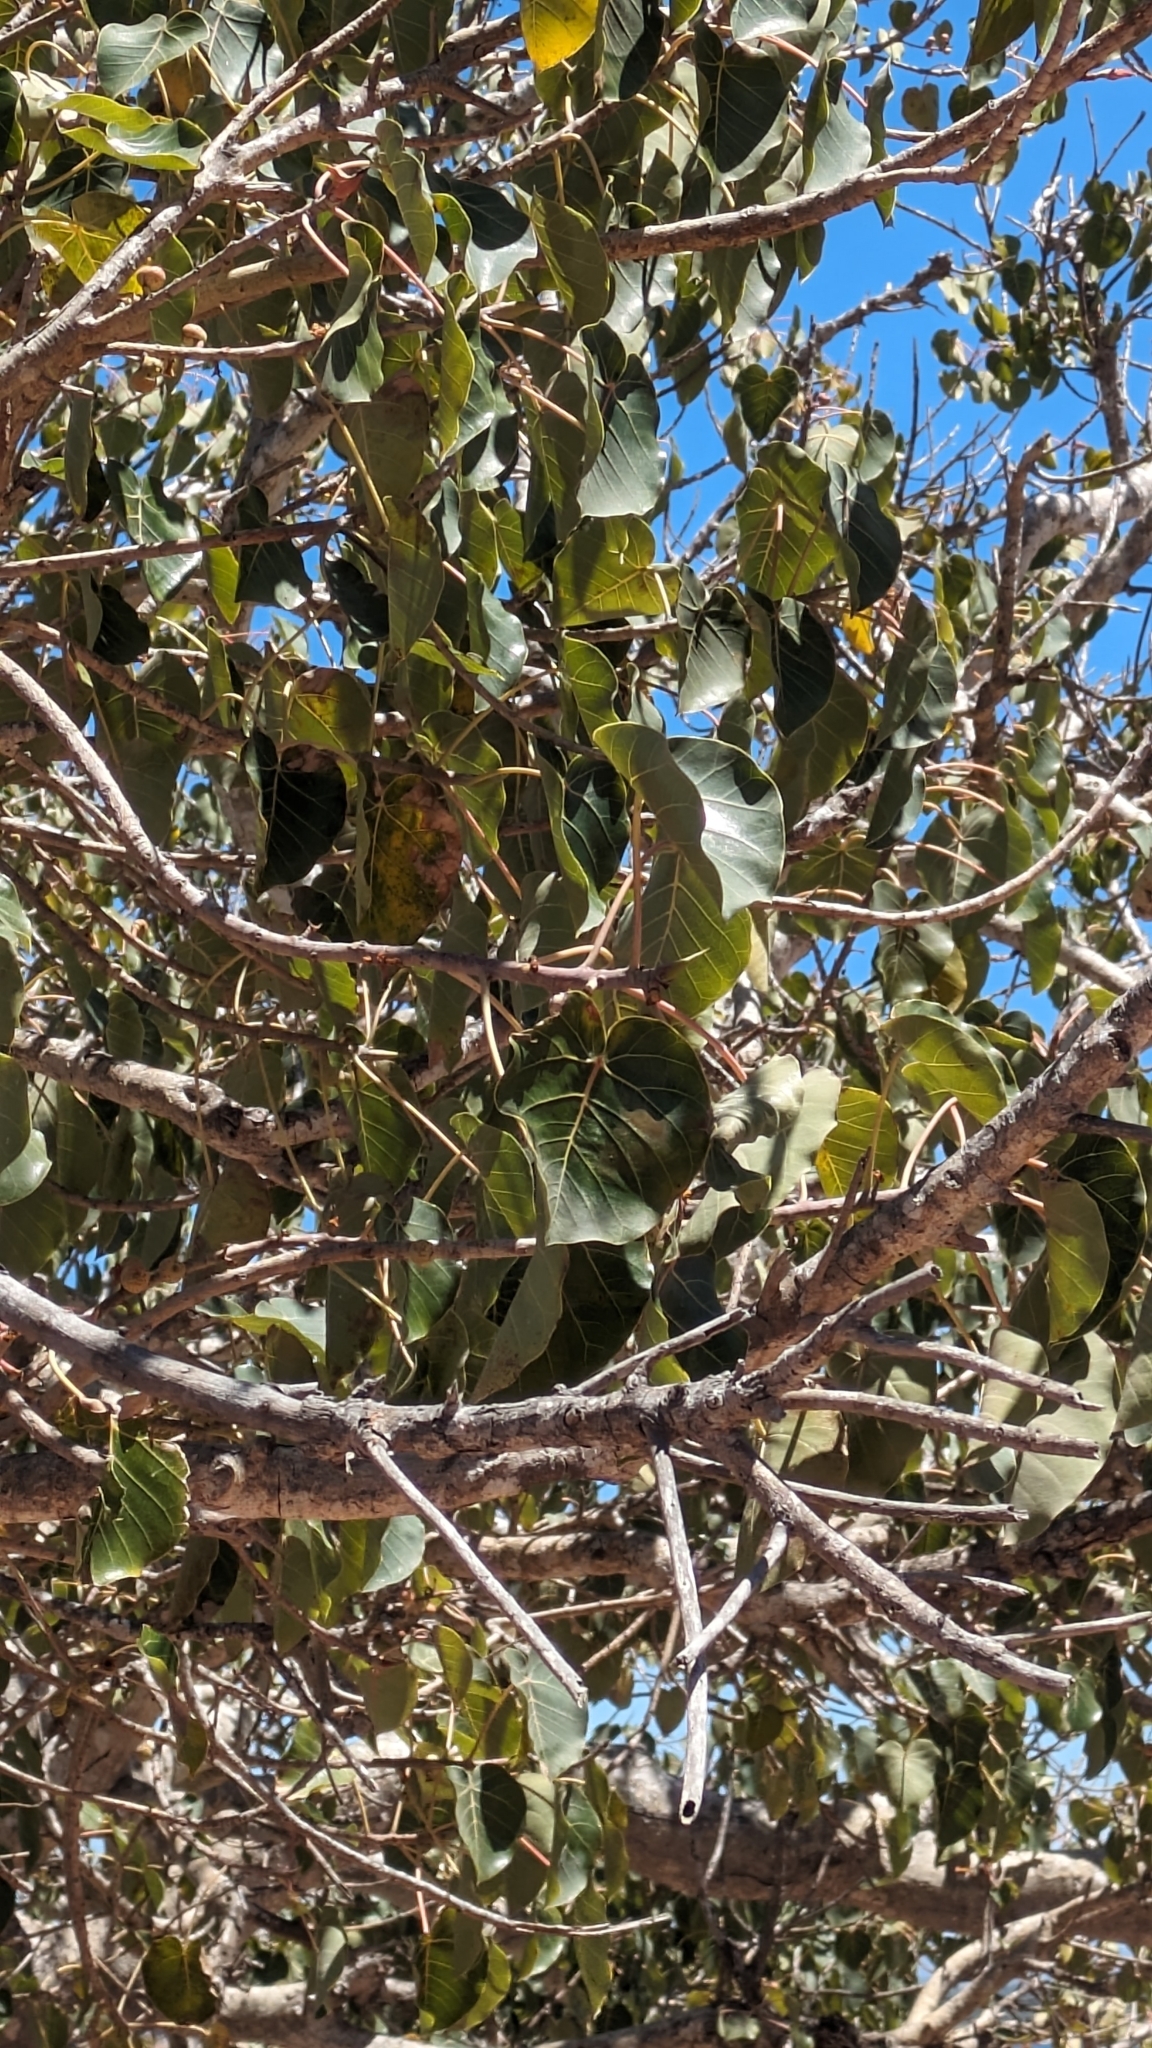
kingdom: Plantae
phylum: Tracheophyta
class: Magnoliopsida
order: Rosales
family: Moraceae
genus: Ficus
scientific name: Ficus petiolaris
